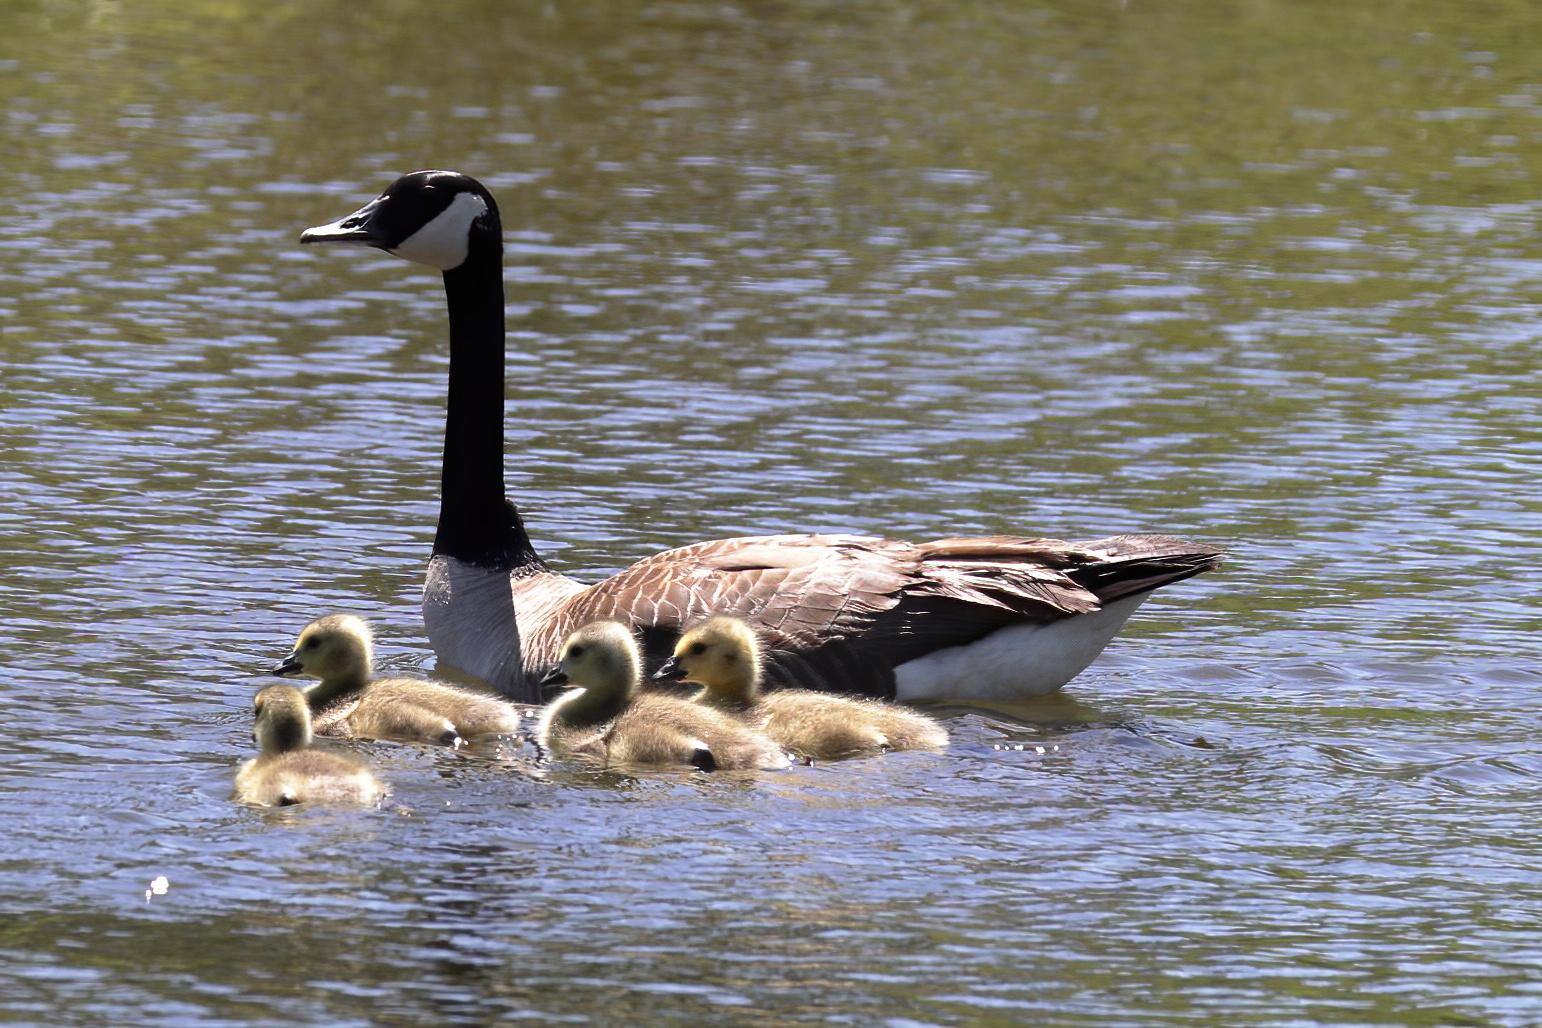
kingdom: Animalia
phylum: Chordata
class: Aves
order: Anseriformes
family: Anatidae
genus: Branta
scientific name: Branta canadensis
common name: Canada goose
